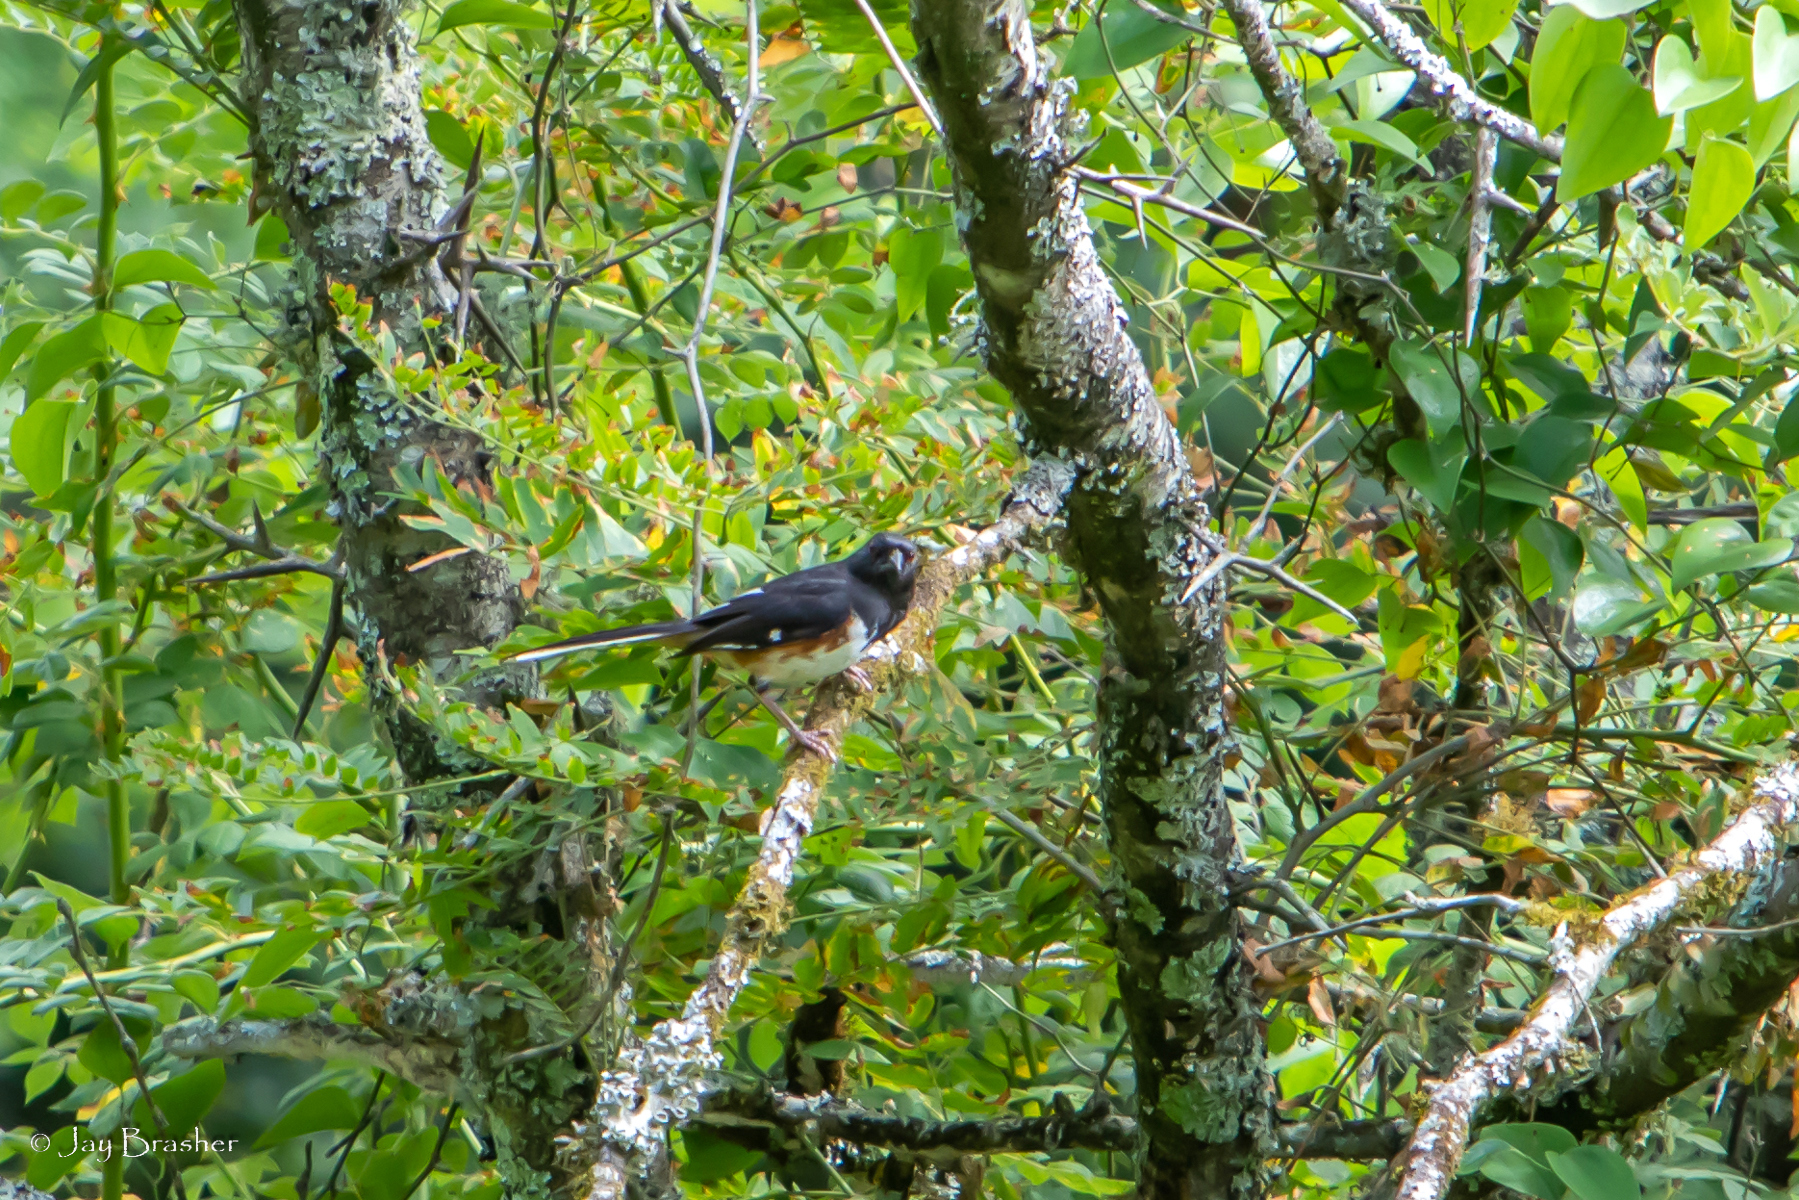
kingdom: Animalia
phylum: Chordata
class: Aves
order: Passeriformes
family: Passerellidae
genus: Pipilo
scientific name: Pipilo erythrophthalmus
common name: Eastern towhee
